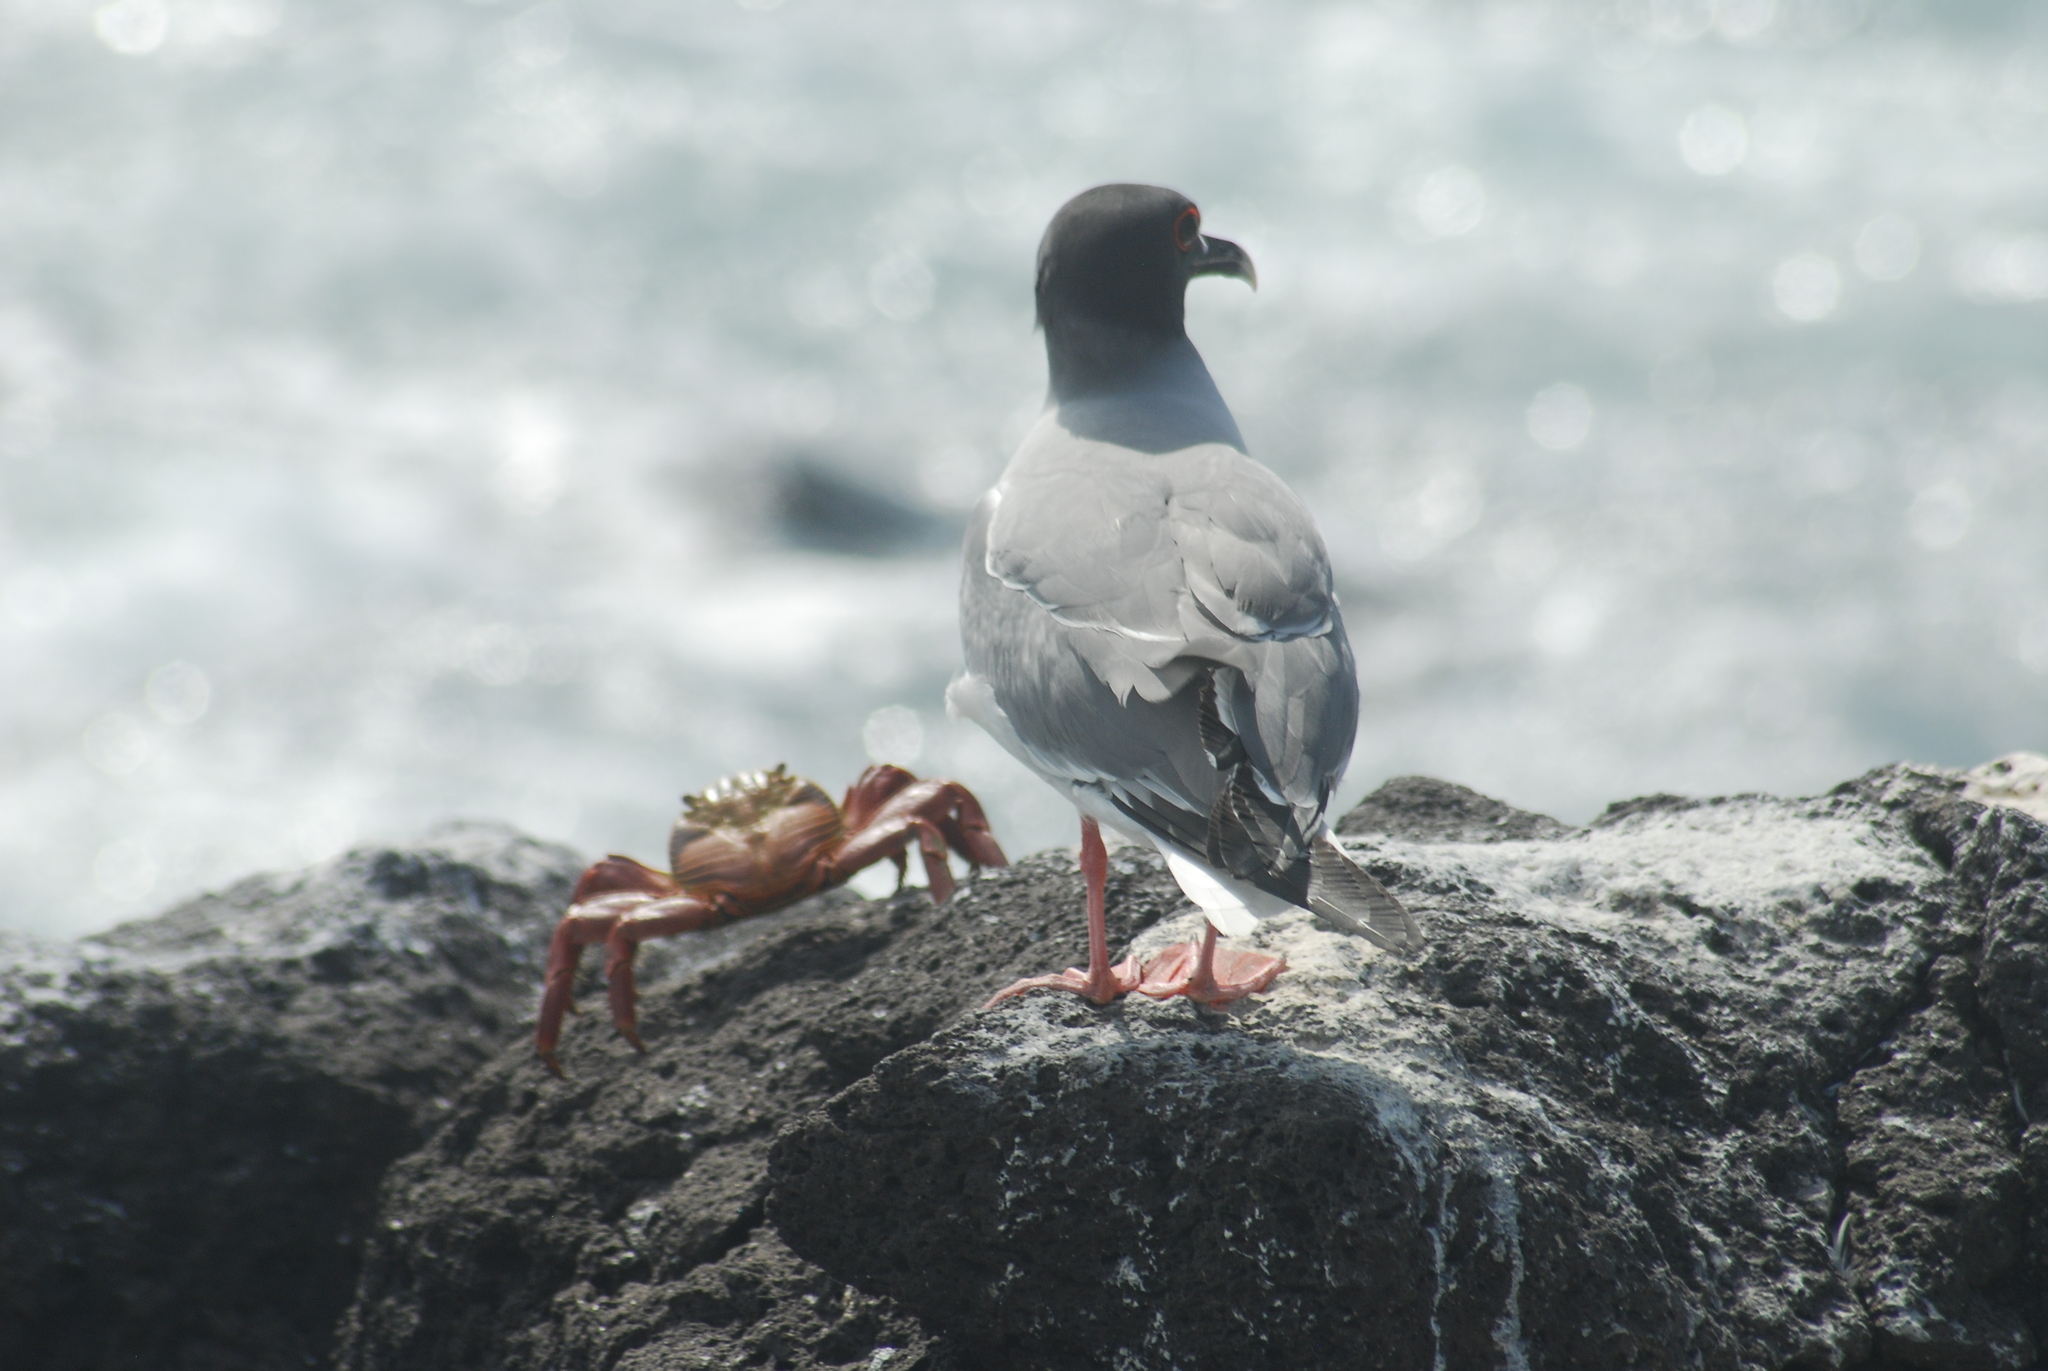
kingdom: Animalia
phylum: Chordata
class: Aves
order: Charadriiformes
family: Laridae
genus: Creagrus
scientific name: Creagrus furcatus
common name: Swallow-tailed gull
